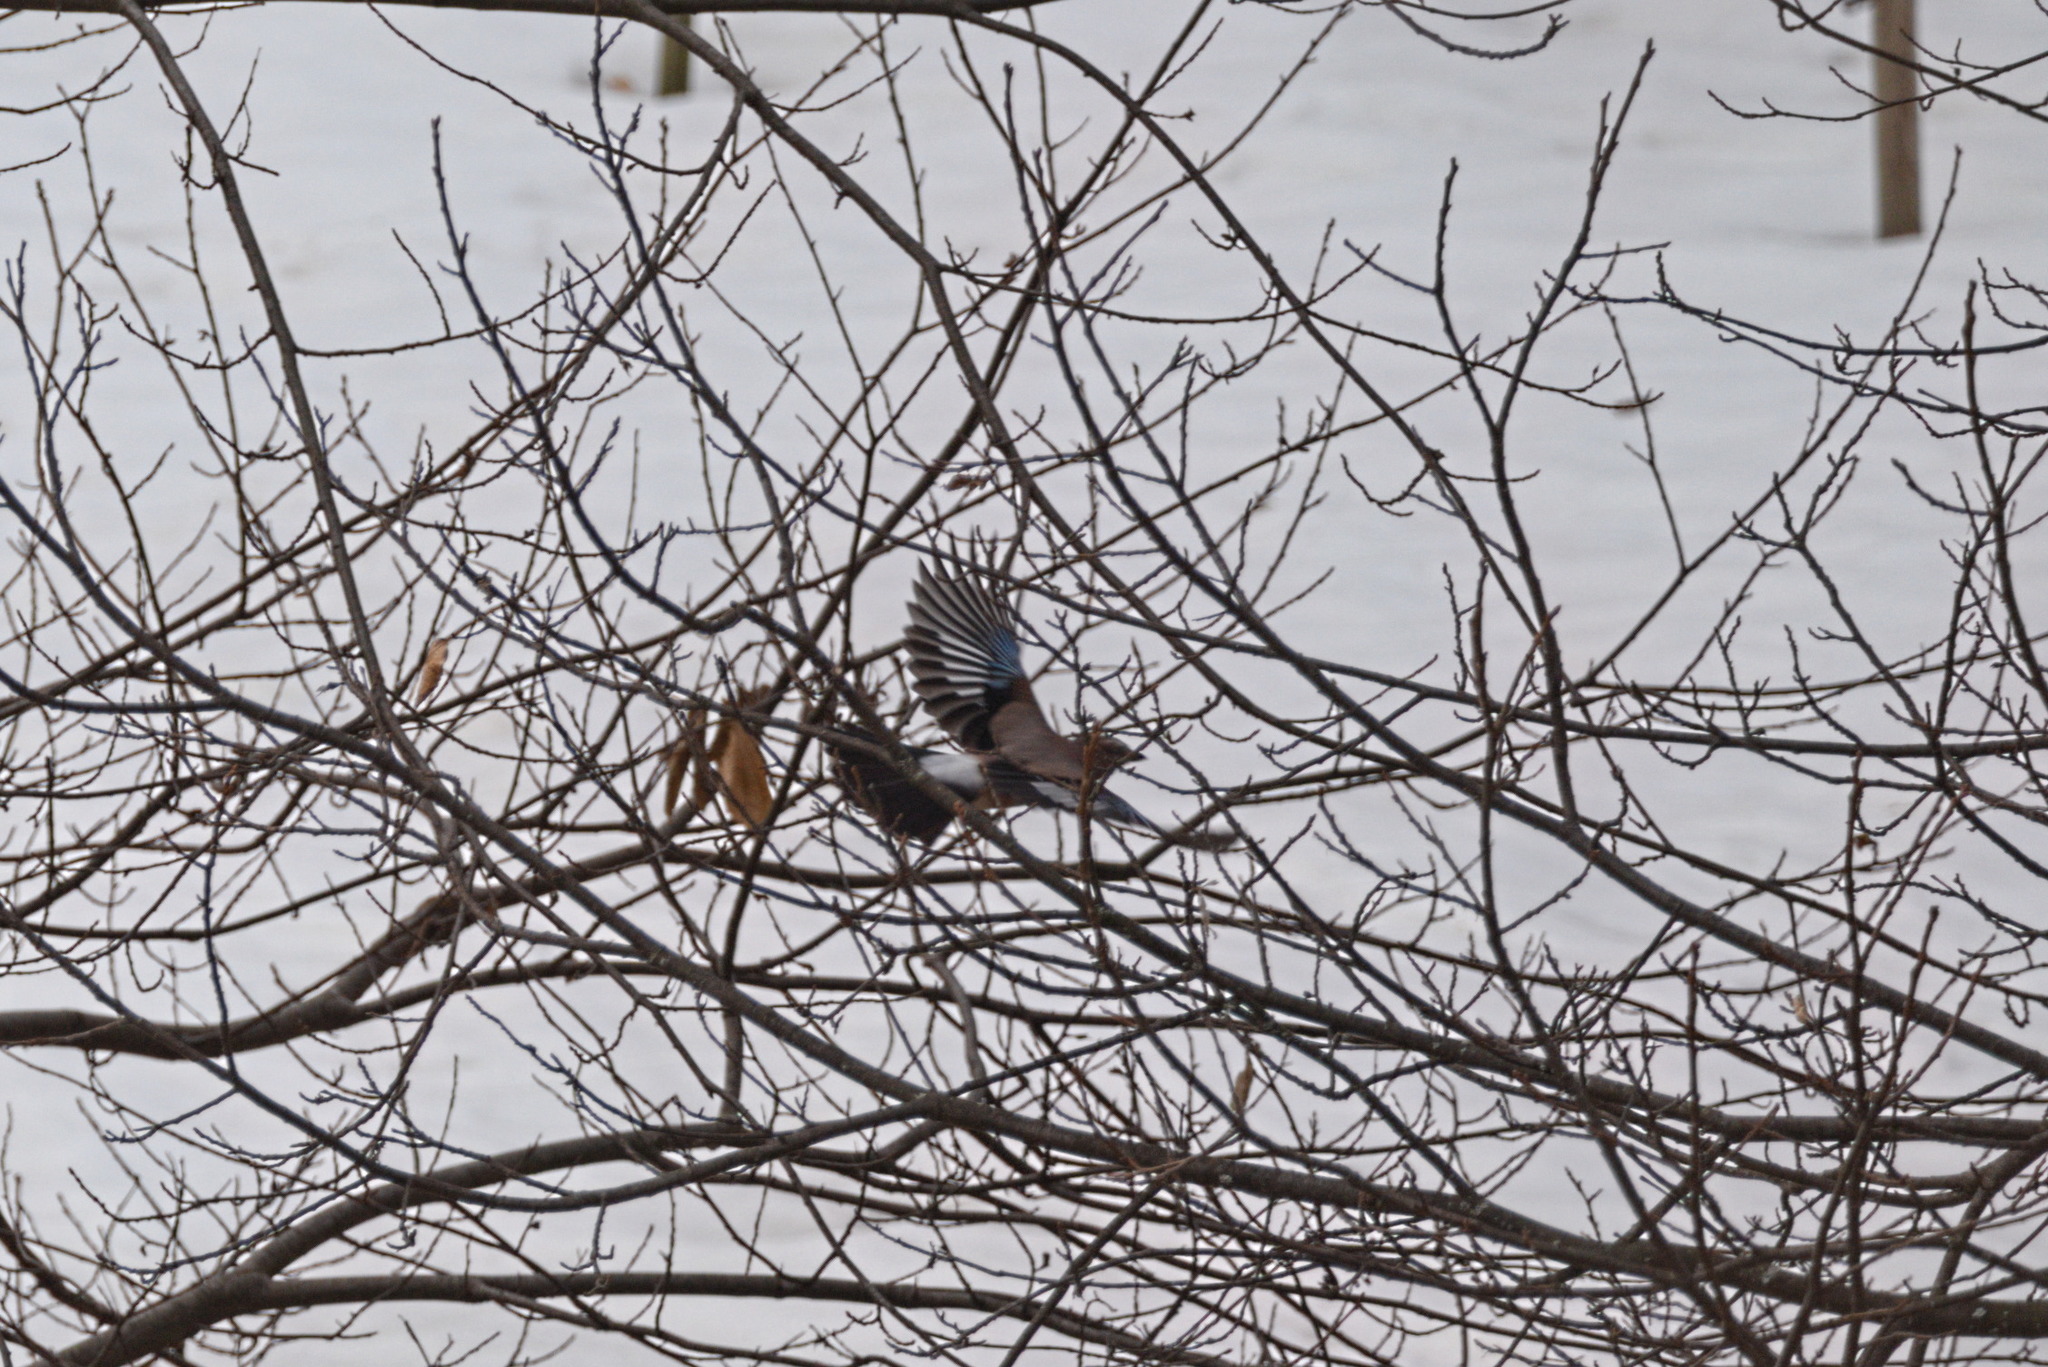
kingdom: Animalia
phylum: Chordata
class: Aves
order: Passeriformes
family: Corvidae
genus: Garrulus
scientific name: Garrulus glandarius
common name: Eurasian jay
